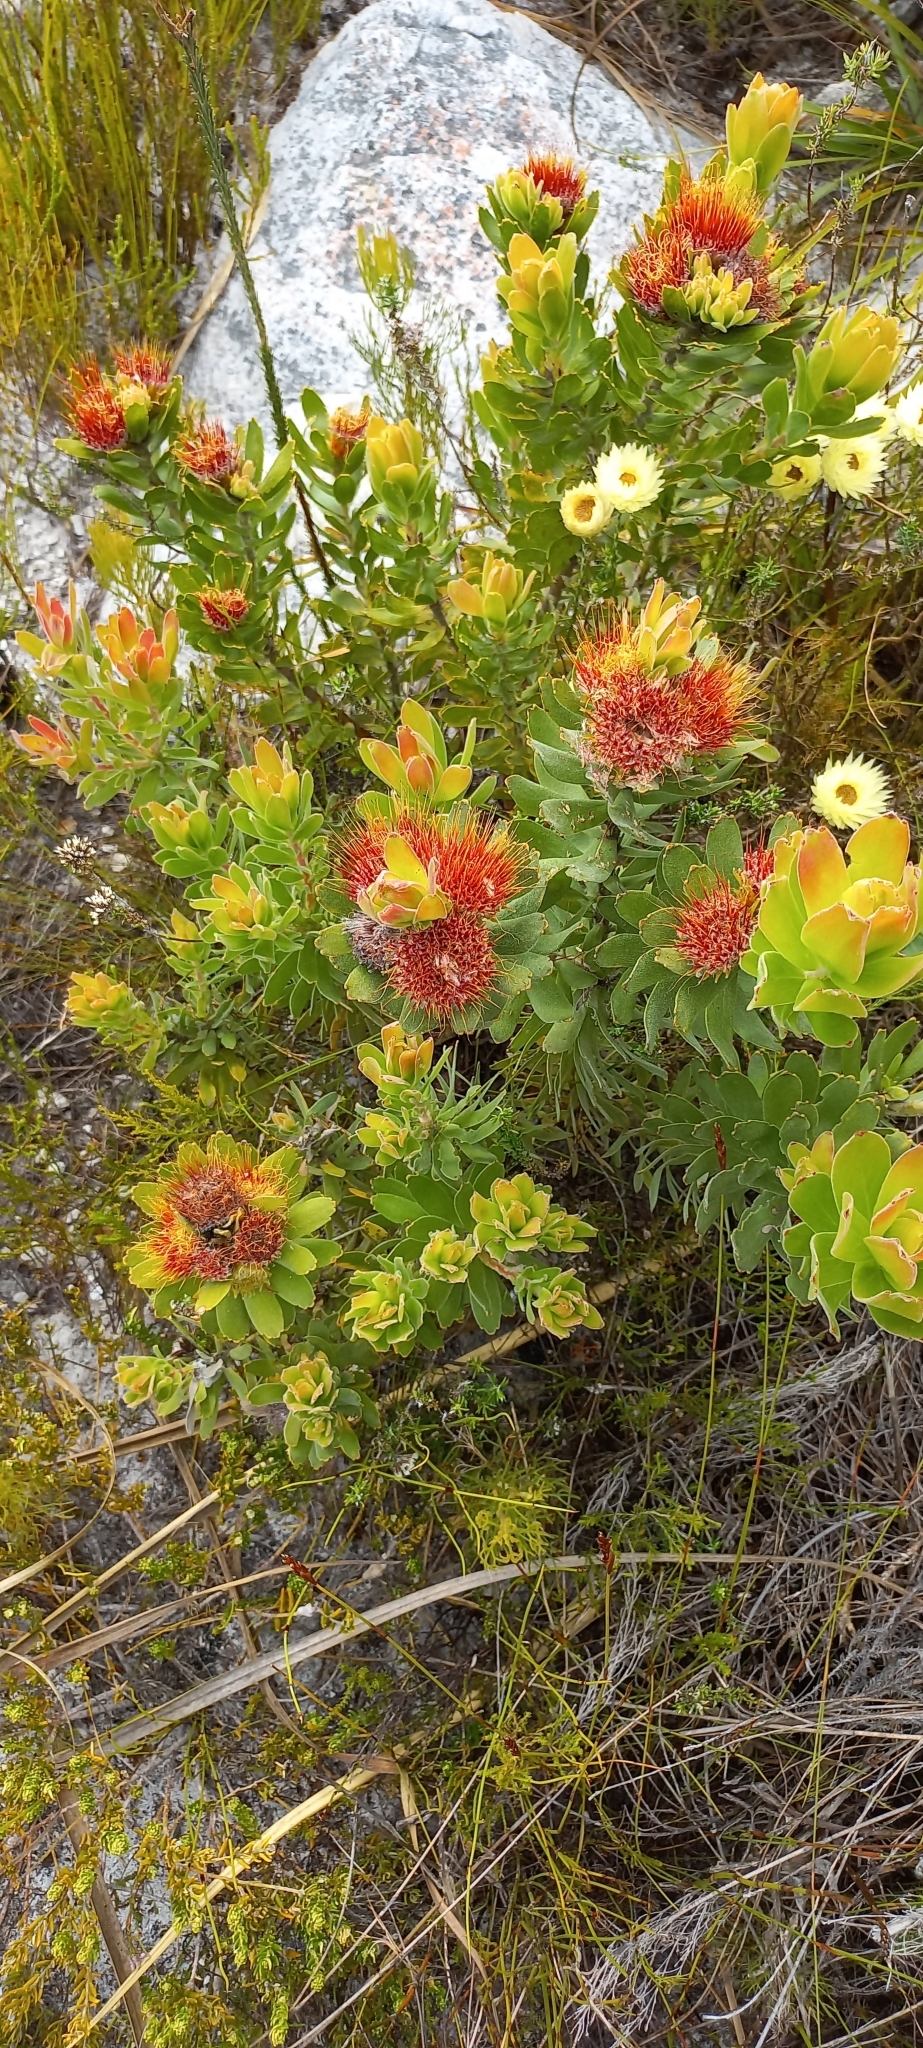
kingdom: Plantae
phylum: Tracheophyta
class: Magnoliopsida
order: Proteales
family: Proteaceae
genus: Leucospermum
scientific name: Leucospermum oleifolium
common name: Matches
